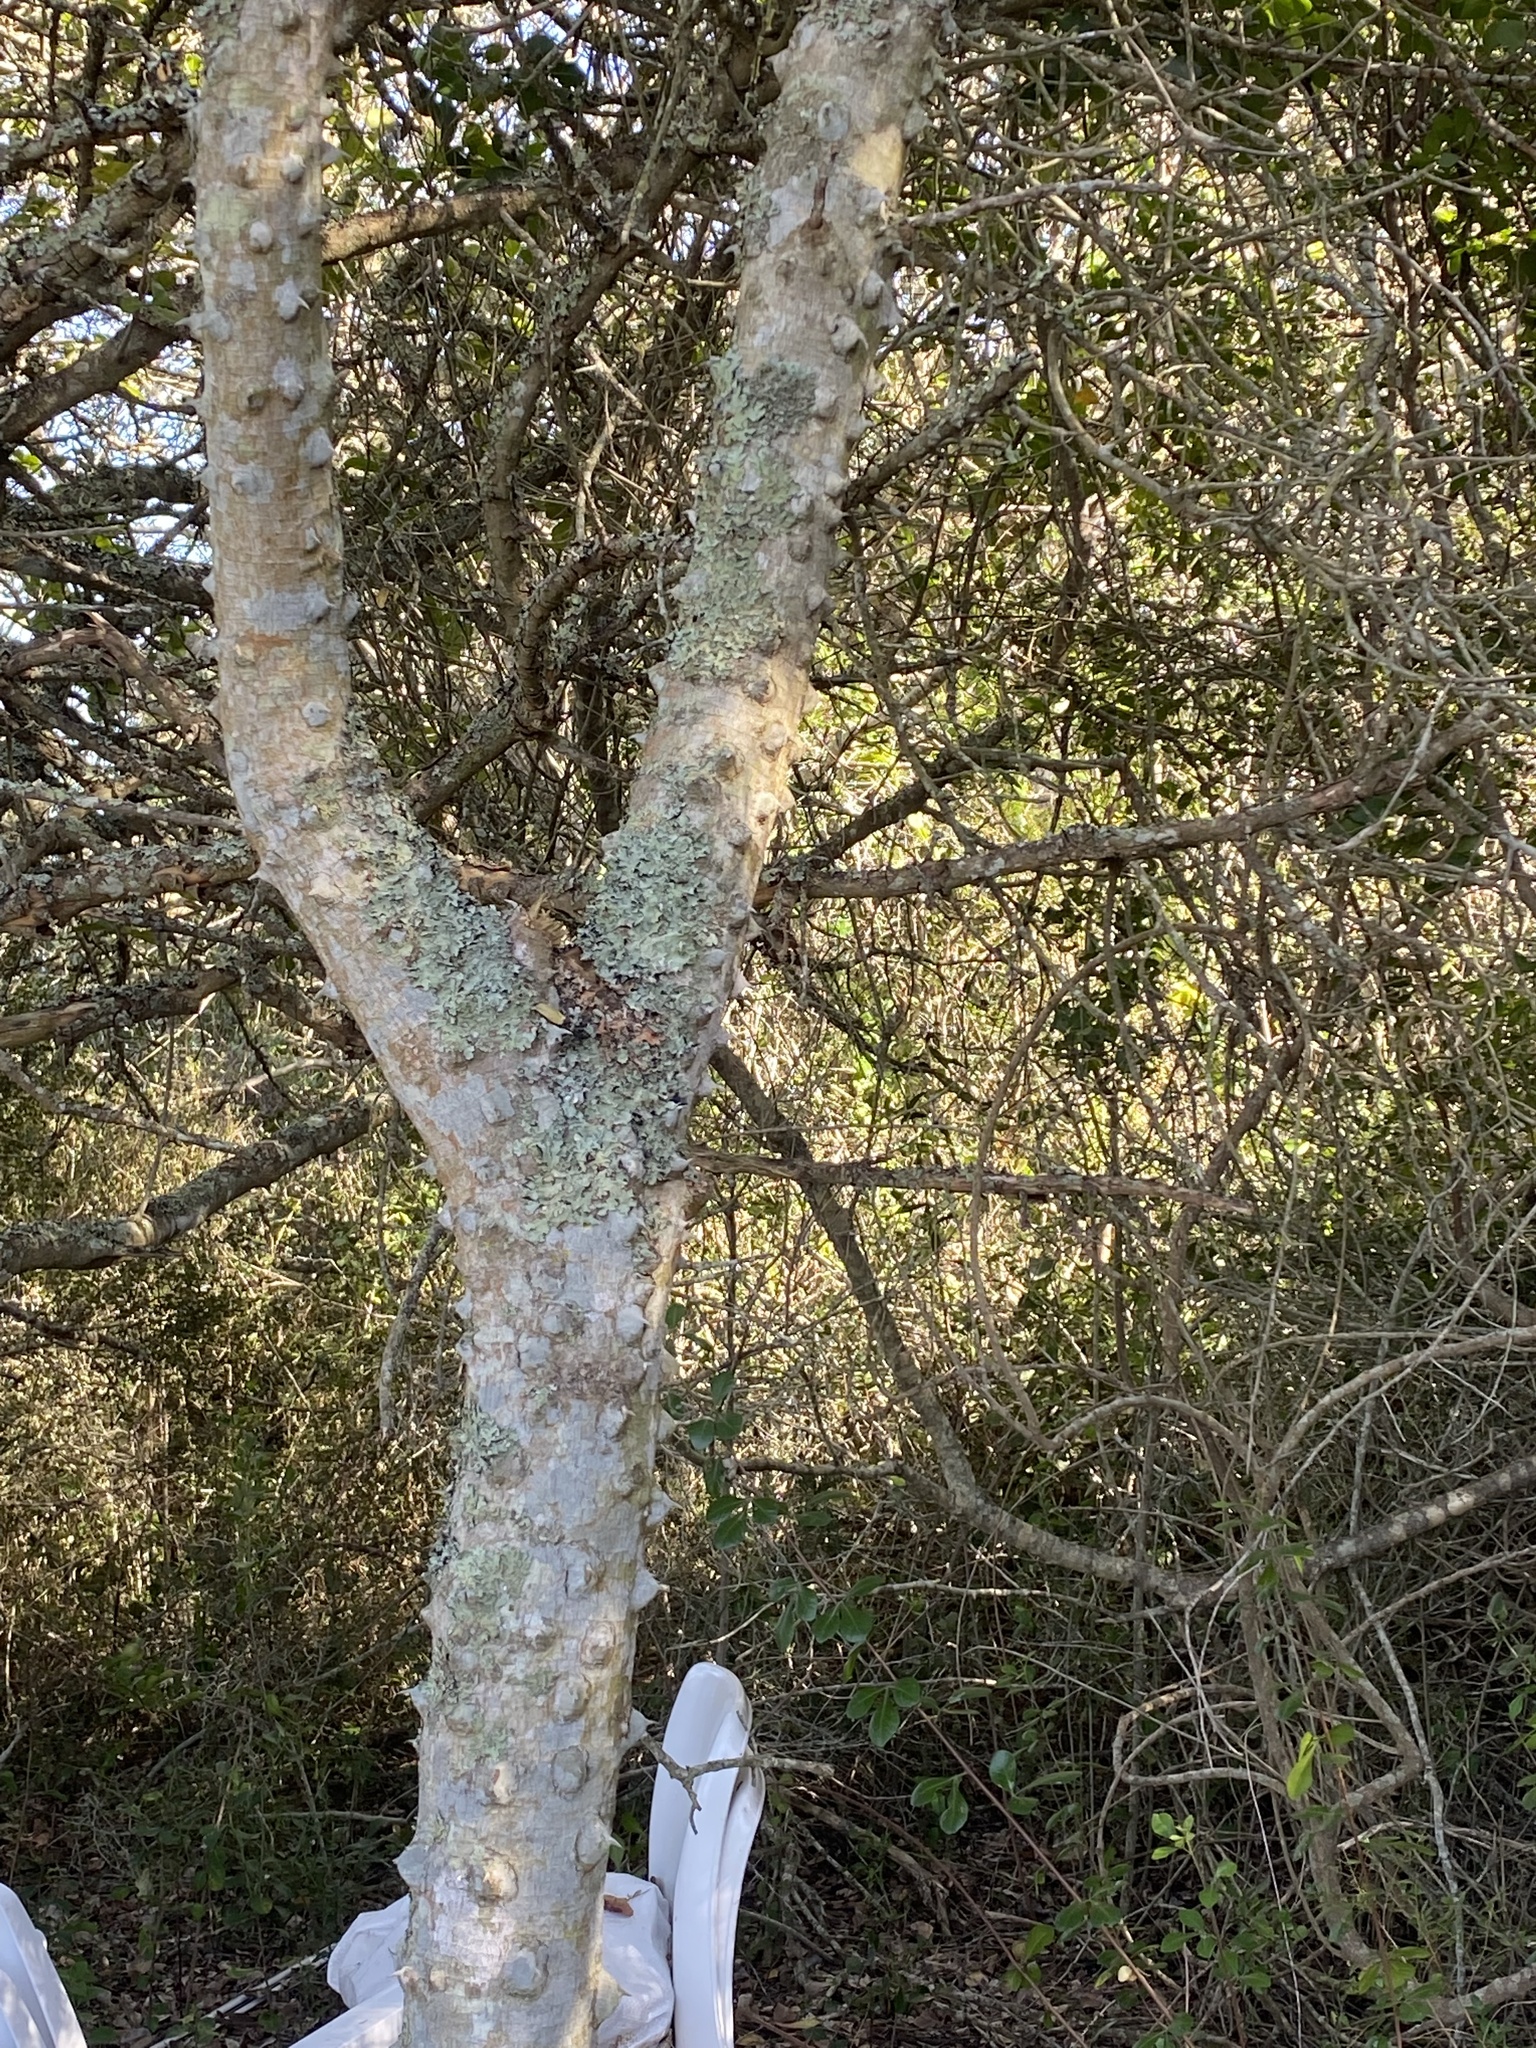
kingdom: Plantae
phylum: Tracheophyta
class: Magnoliopsida
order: Sapindales
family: Rutaceae
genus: Zanthoxylum
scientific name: Zanthoxylum capense
